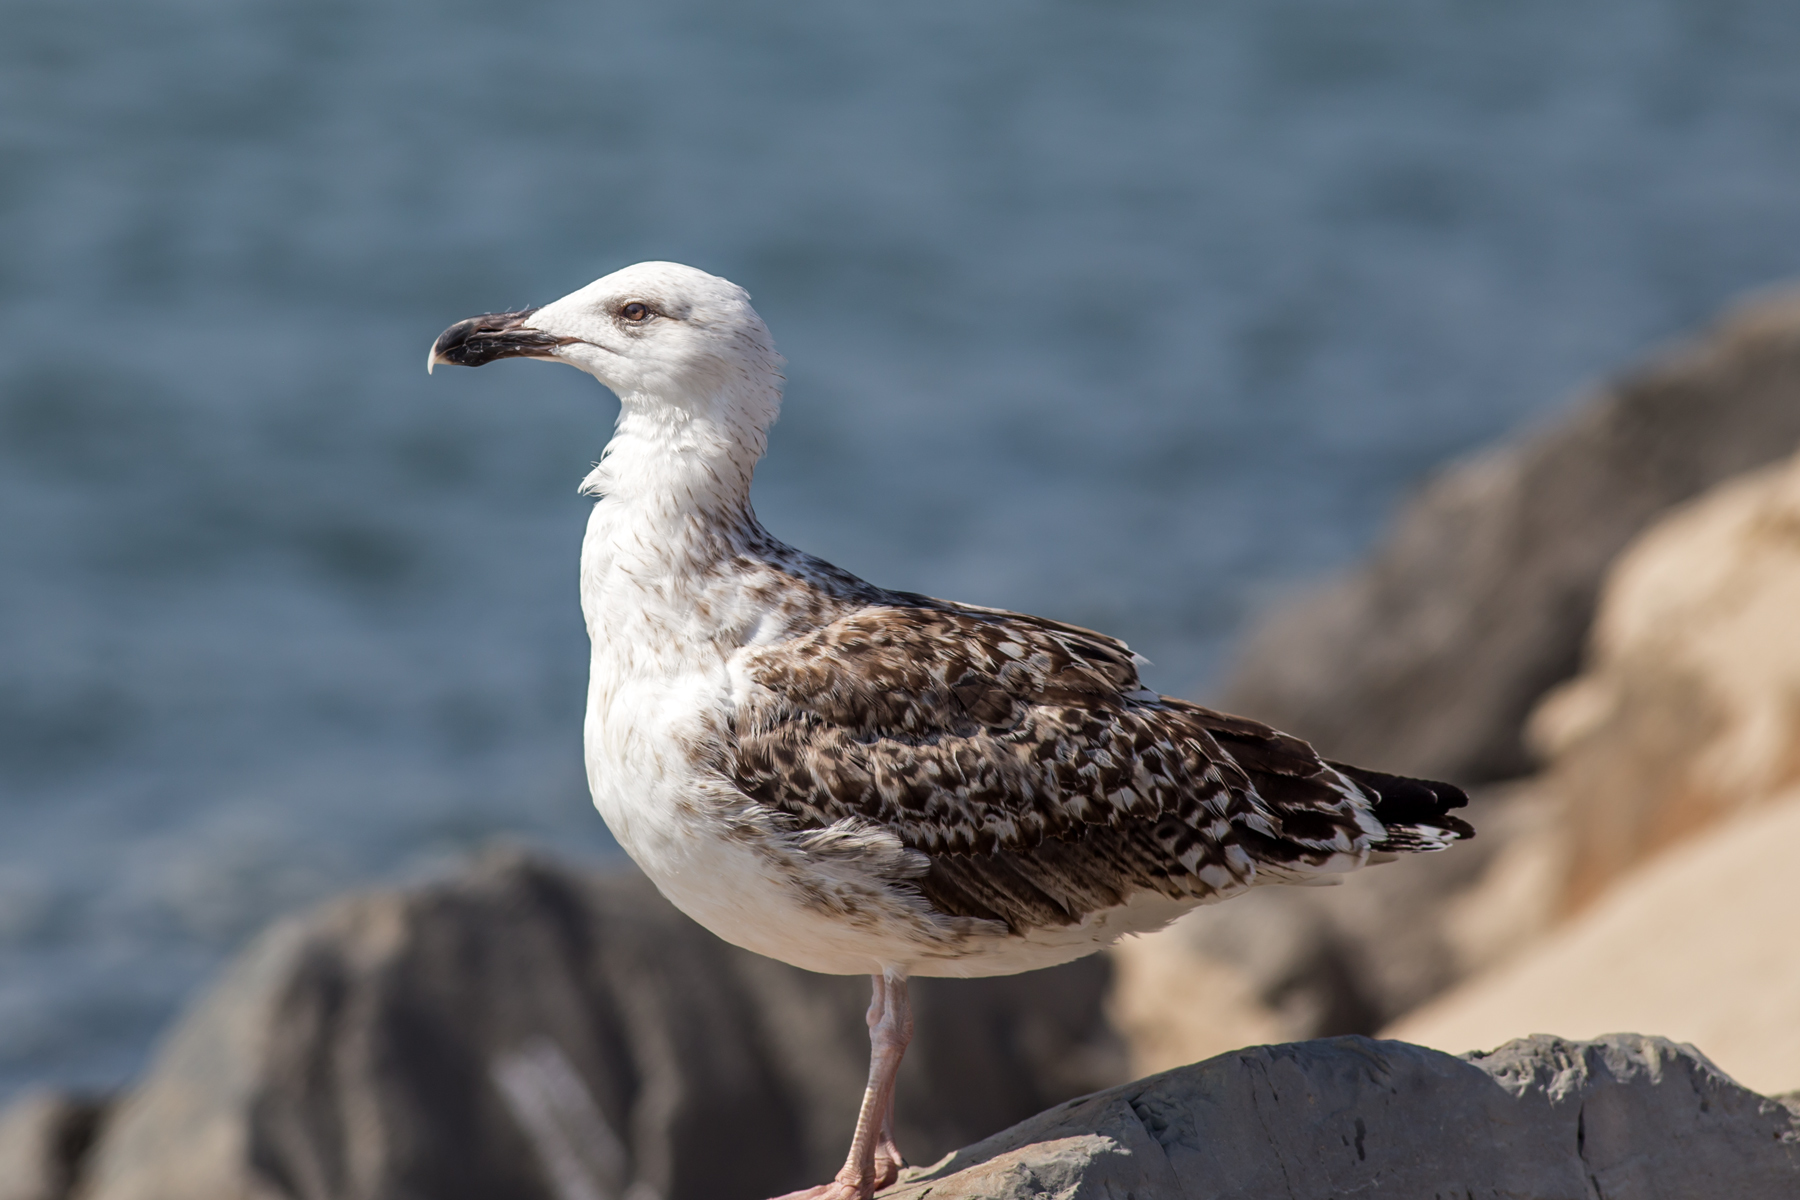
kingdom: Animalia
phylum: Chordata
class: Aves
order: Charadriiformes
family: Laridae
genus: Larus
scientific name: Larus marinus
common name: Great black-backed gull
